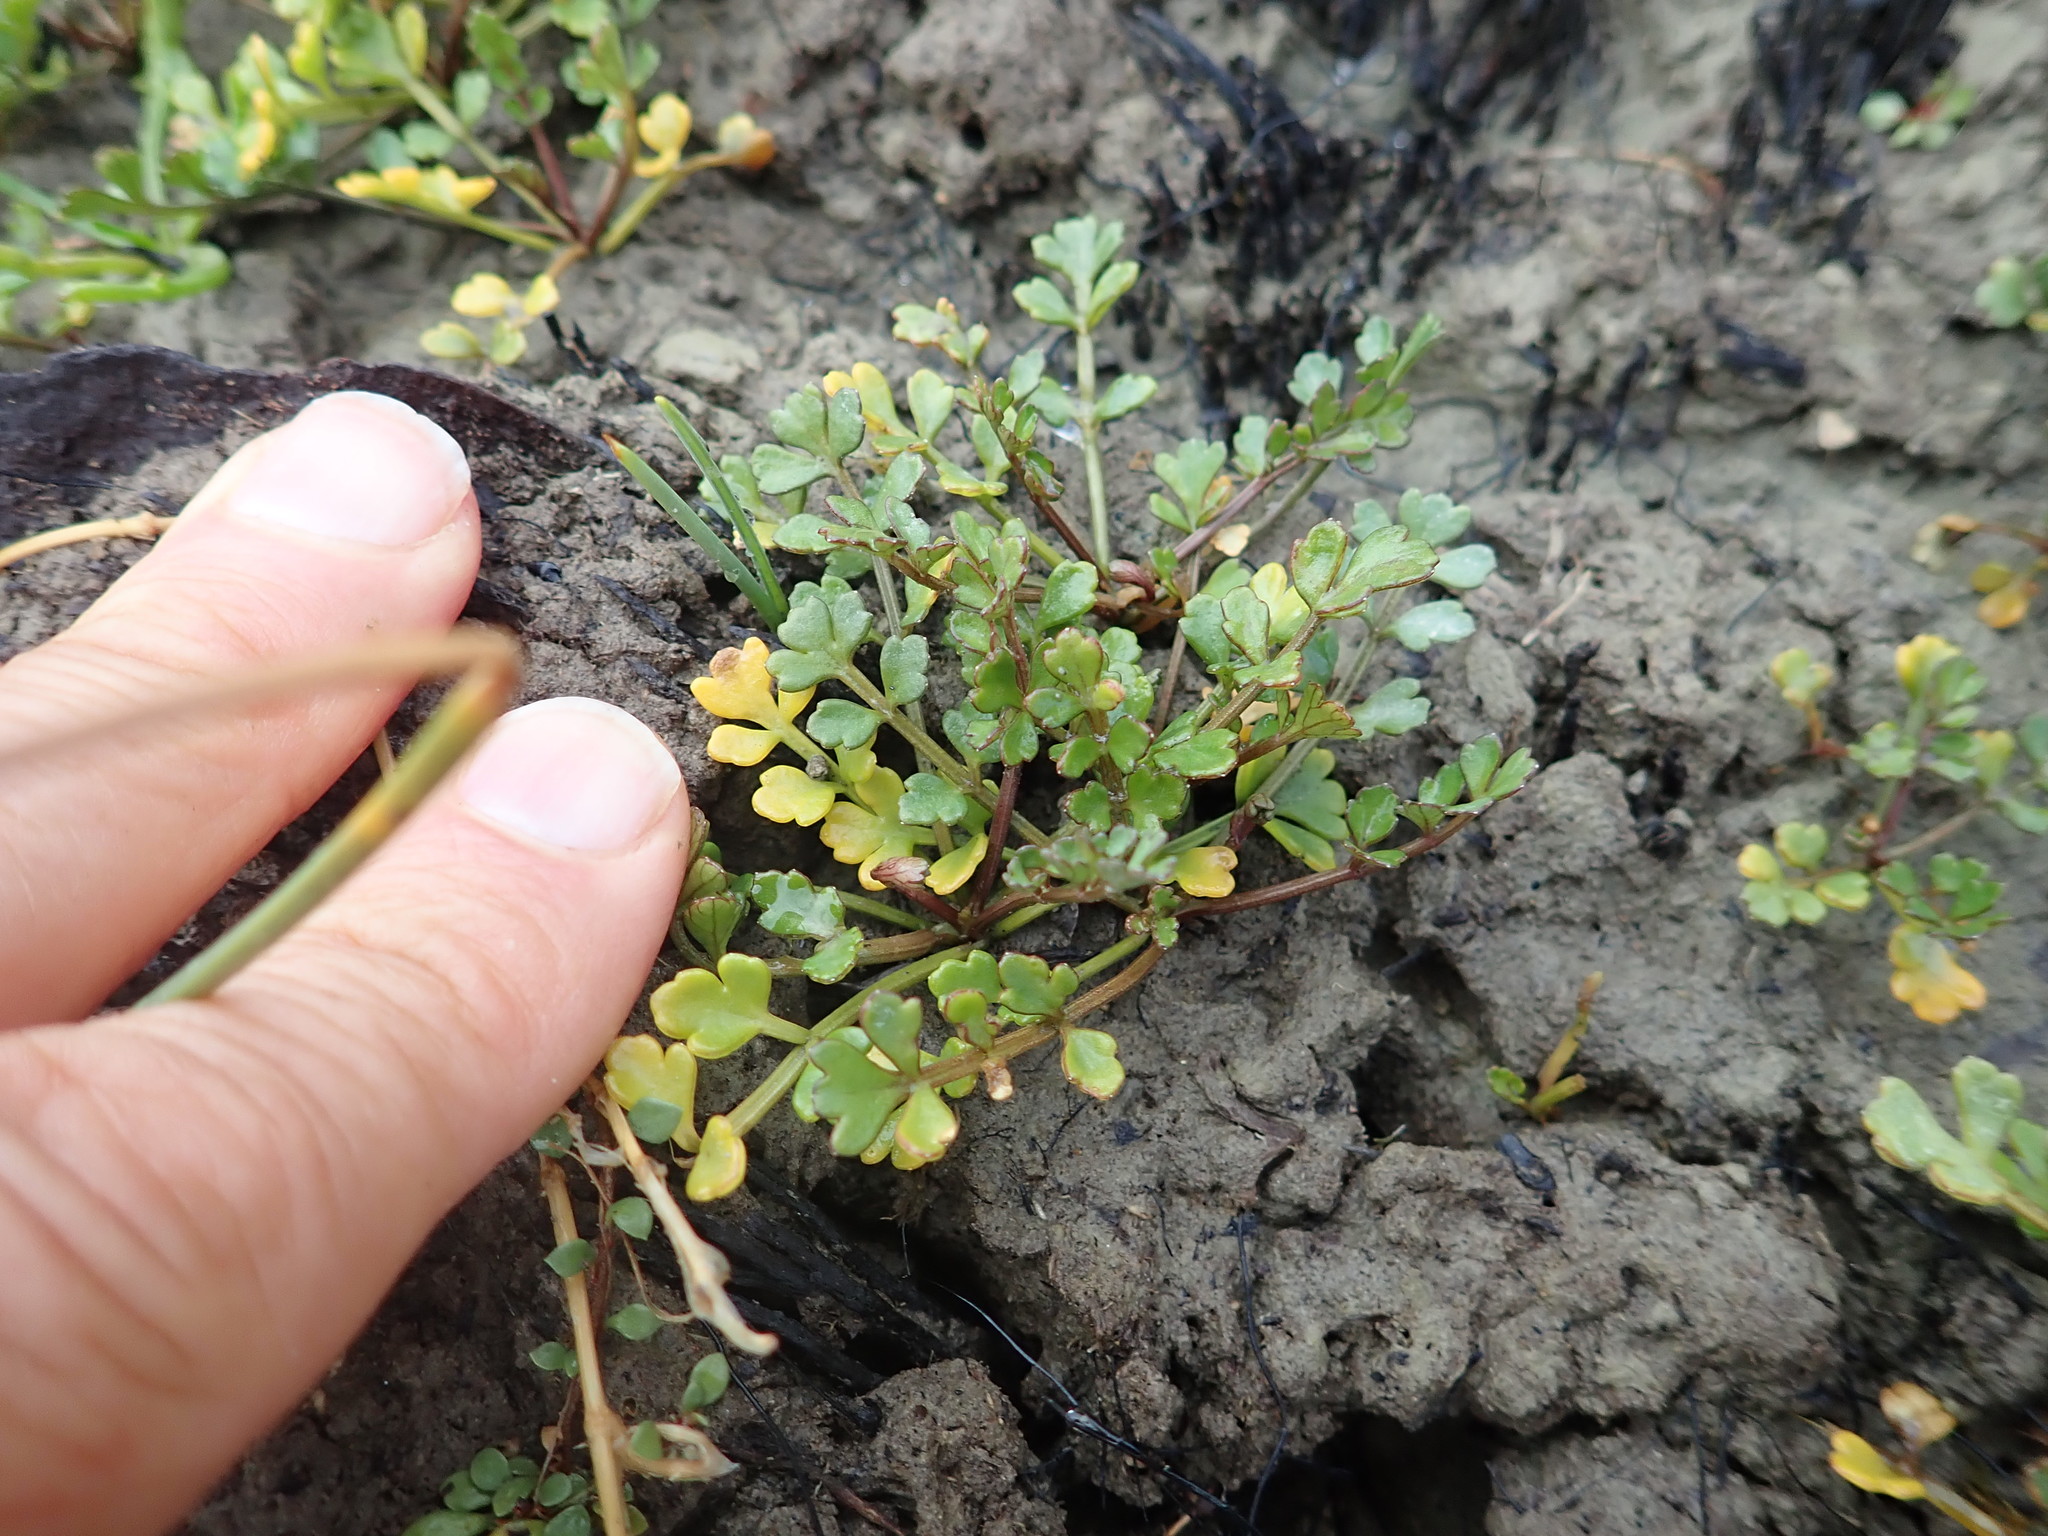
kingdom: Plantae
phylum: Tracheophyta
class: Magnoliopsida
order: Apiales
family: Apiaceae
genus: Apium
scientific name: Apium prostratum
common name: Prostrate marshwort
